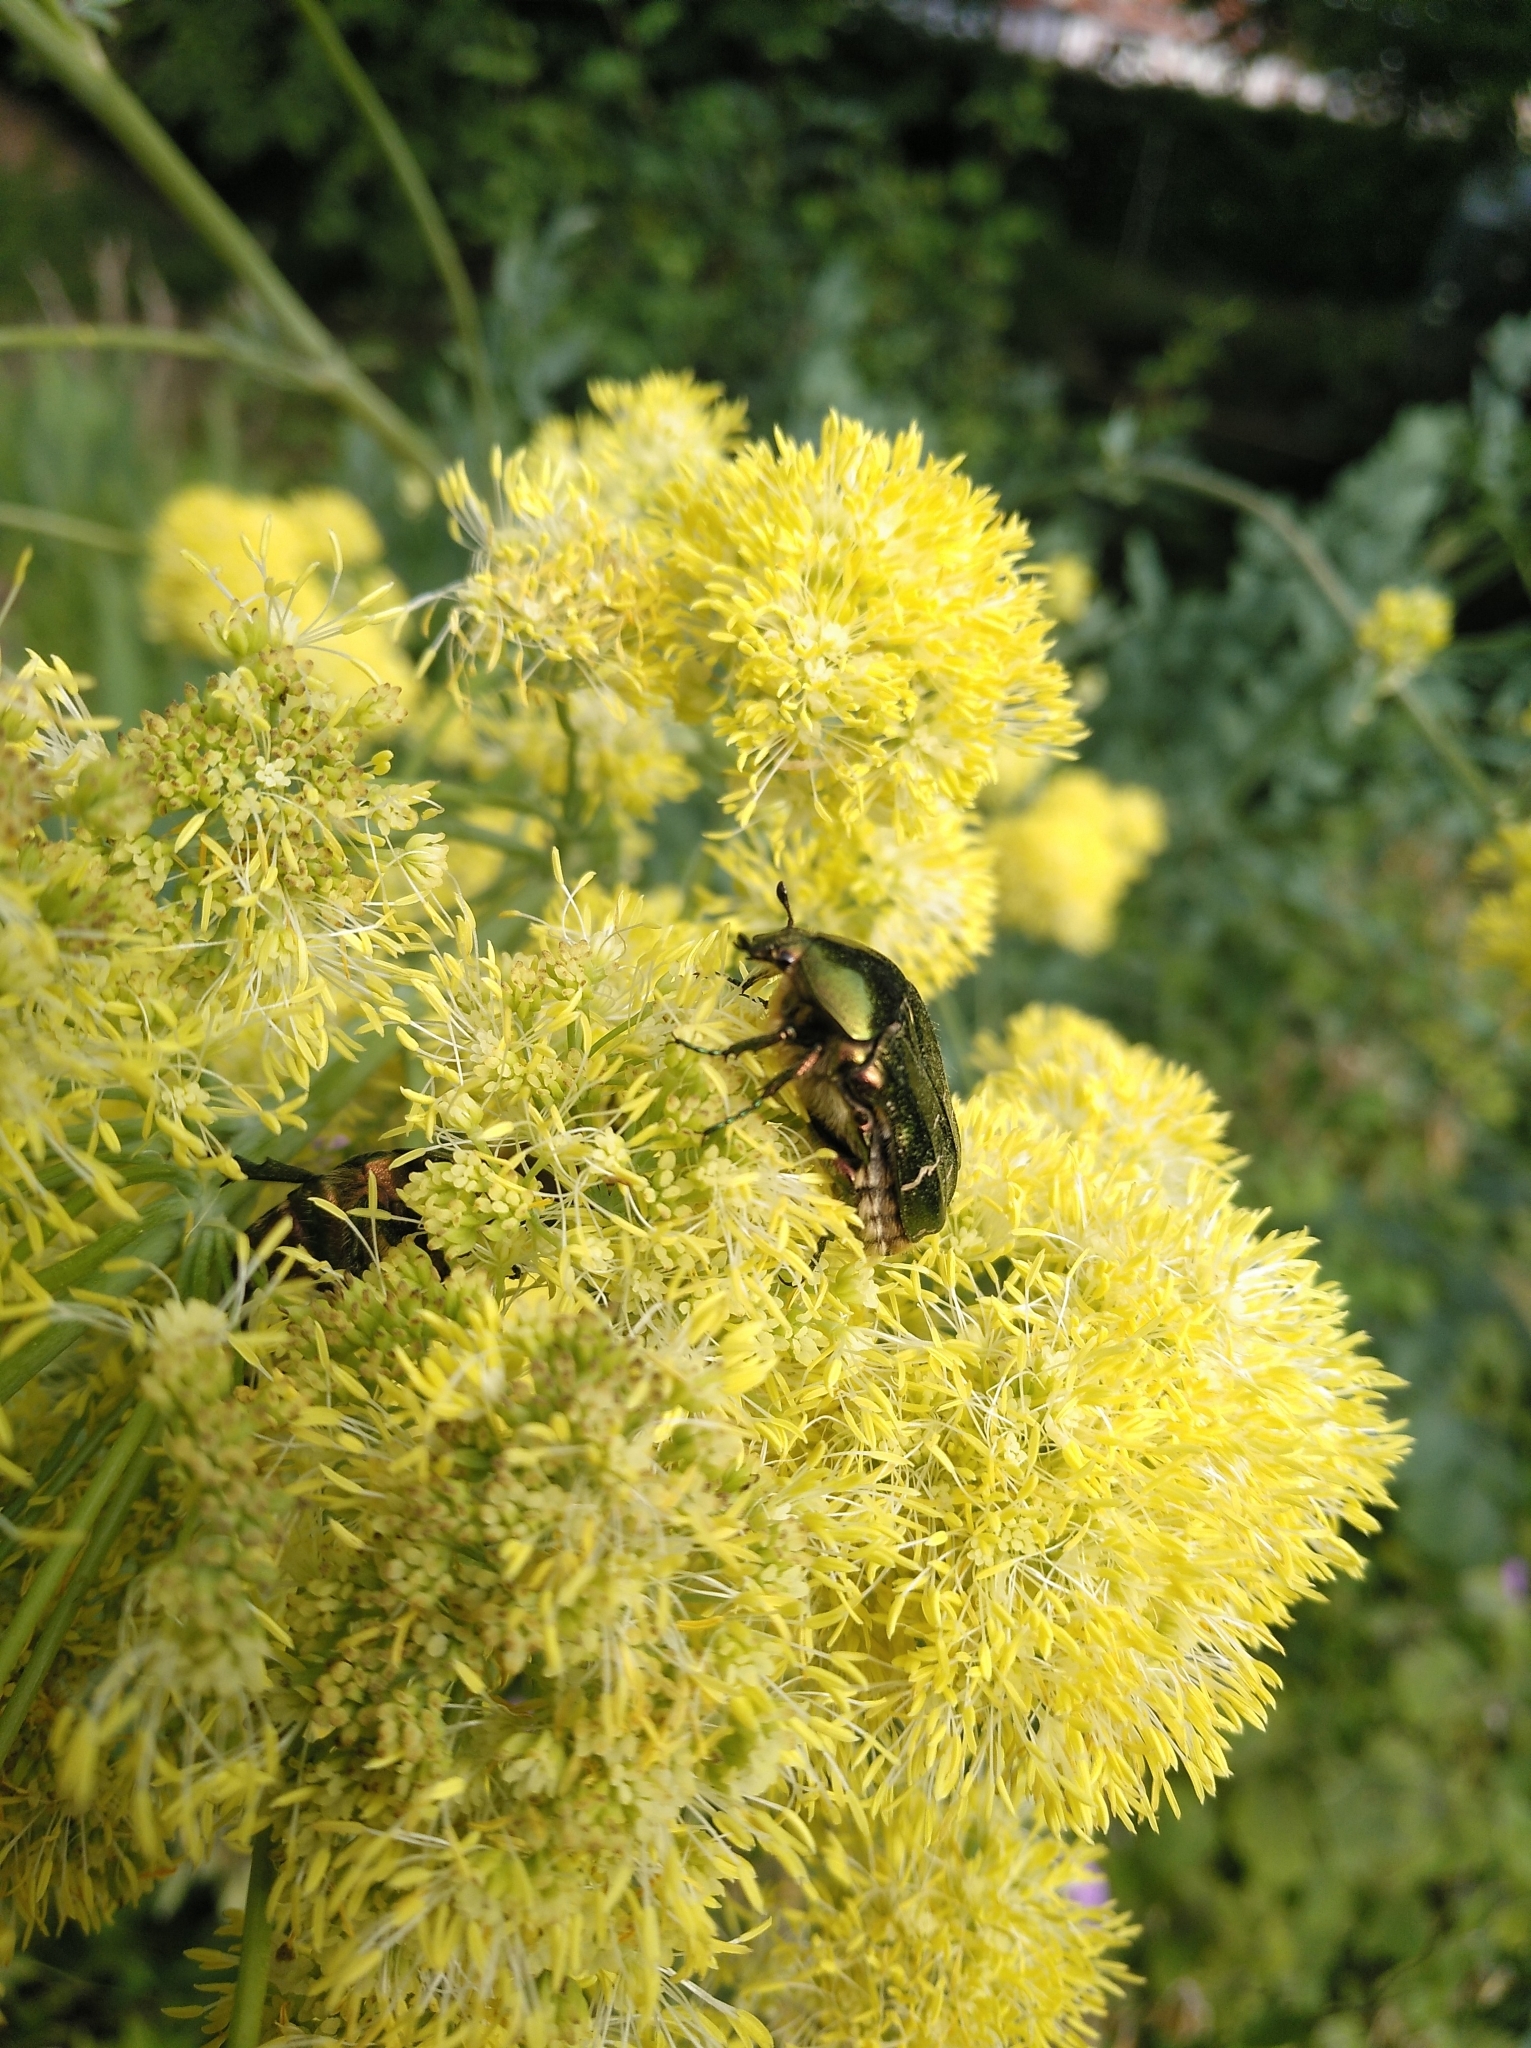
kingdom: Animalia
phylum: Arthropoda
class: Insecta
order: Coleoptera
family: Scarabaeidae
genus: Cetonia
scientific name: Cetonia aurata
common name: Rose chafer
